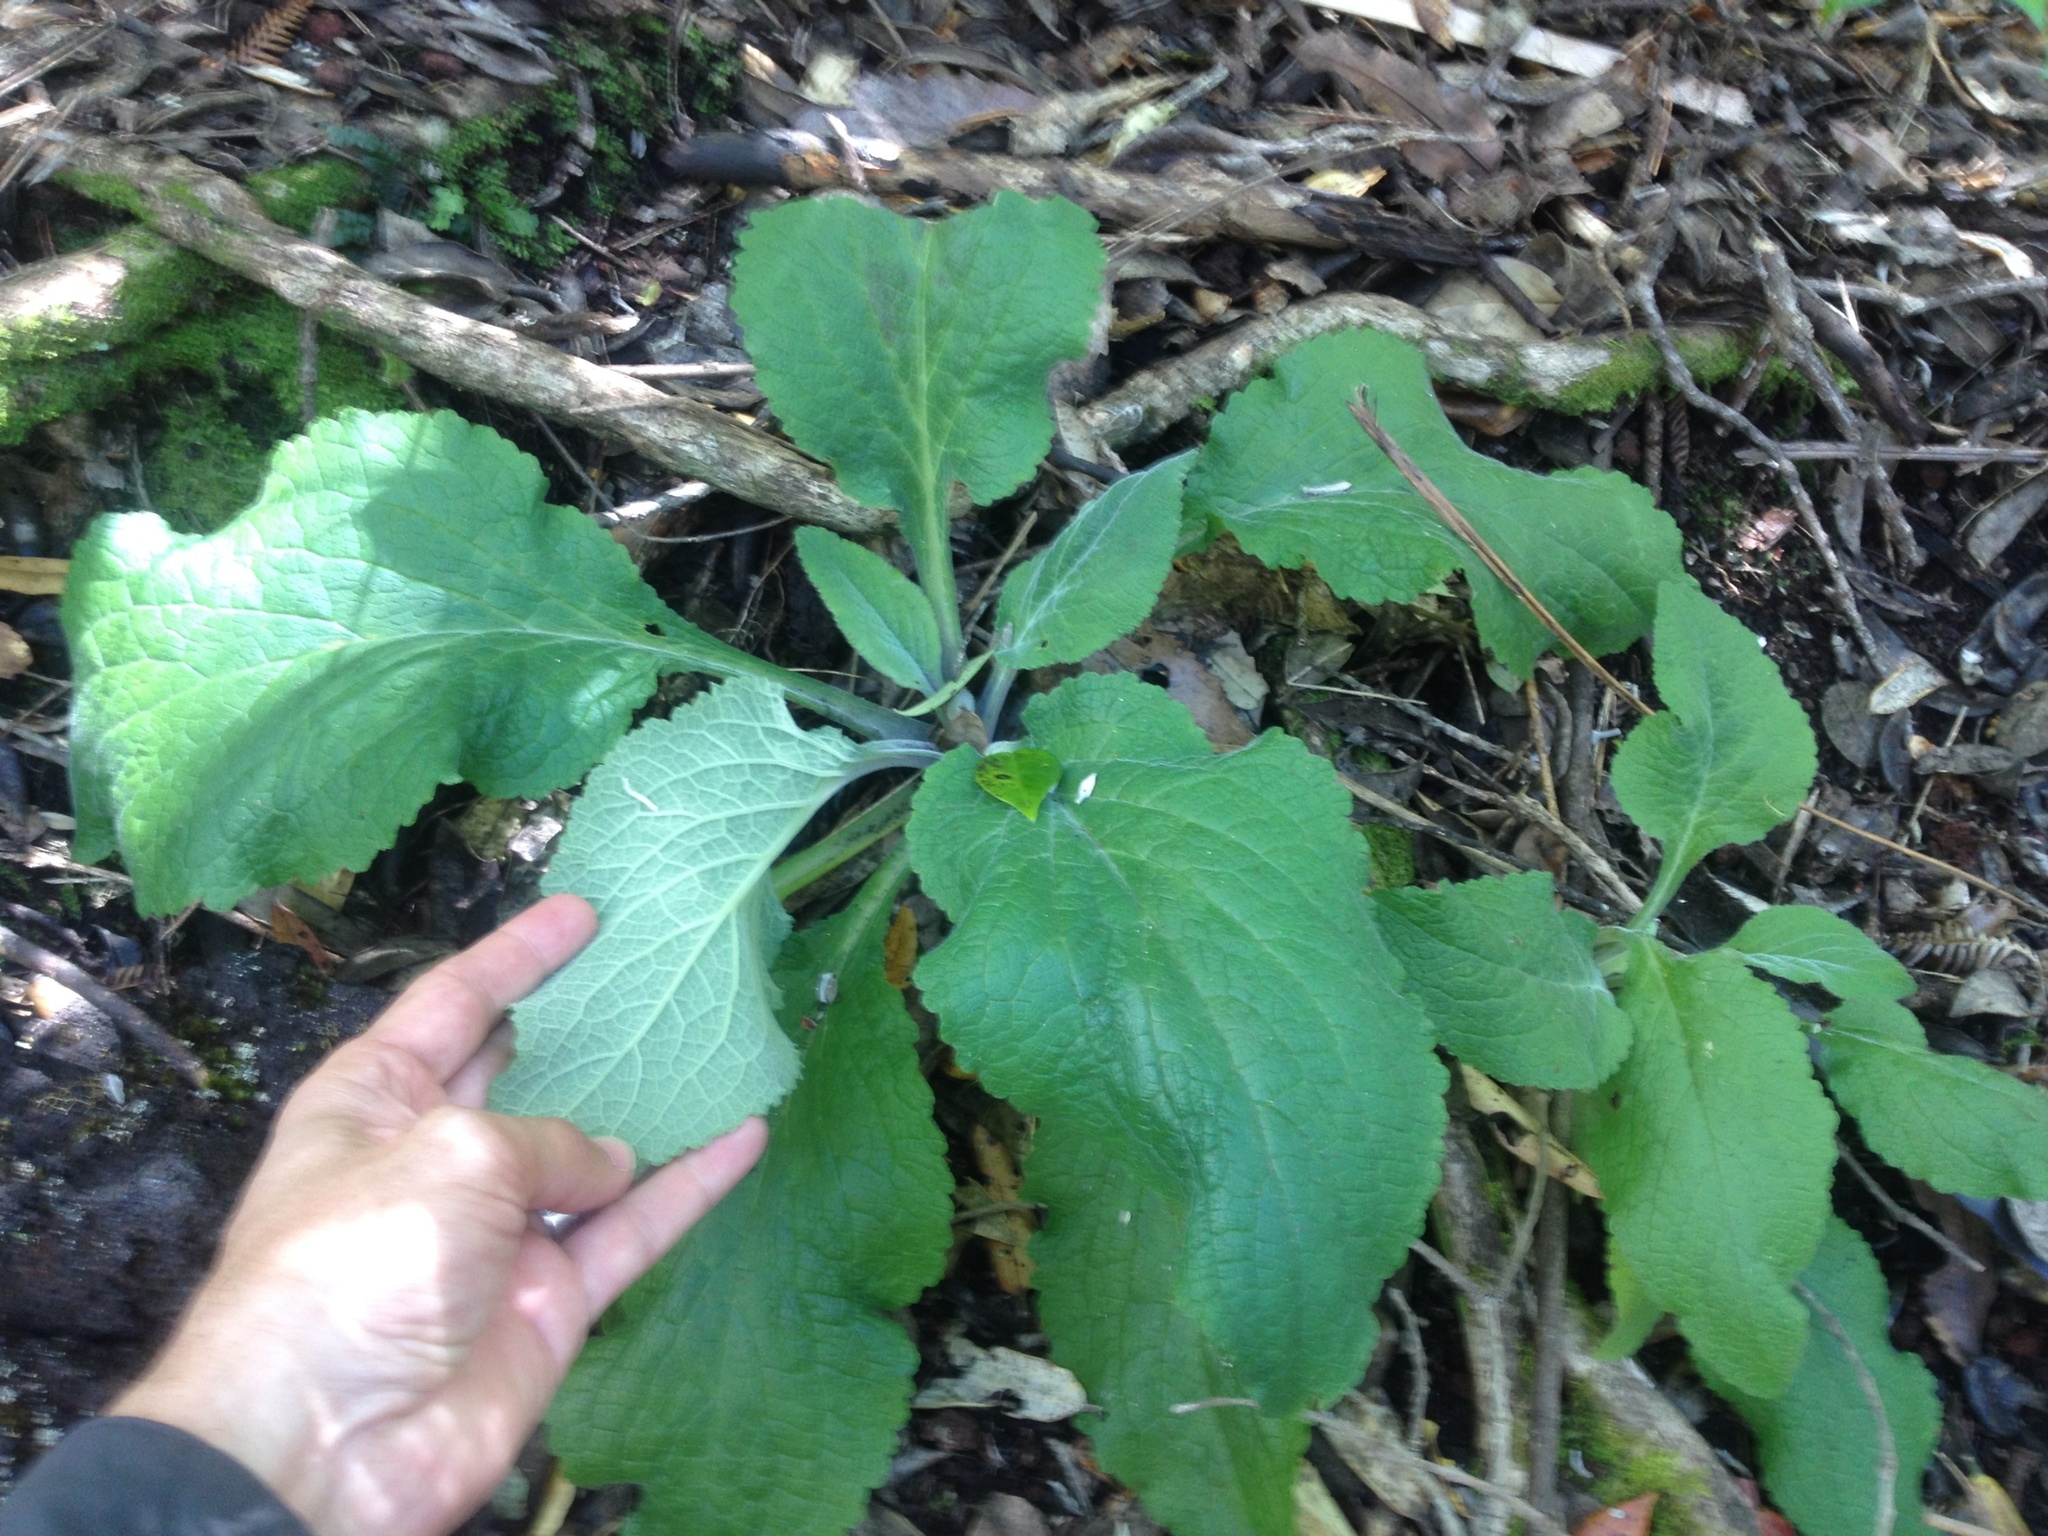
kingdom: Plantae
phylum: Tracheophyta
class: Magnoliopsida
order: Lamiales
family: Plantaginaceae
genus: Digitalis
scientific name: Digitalis purpurea
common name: Foxglove
